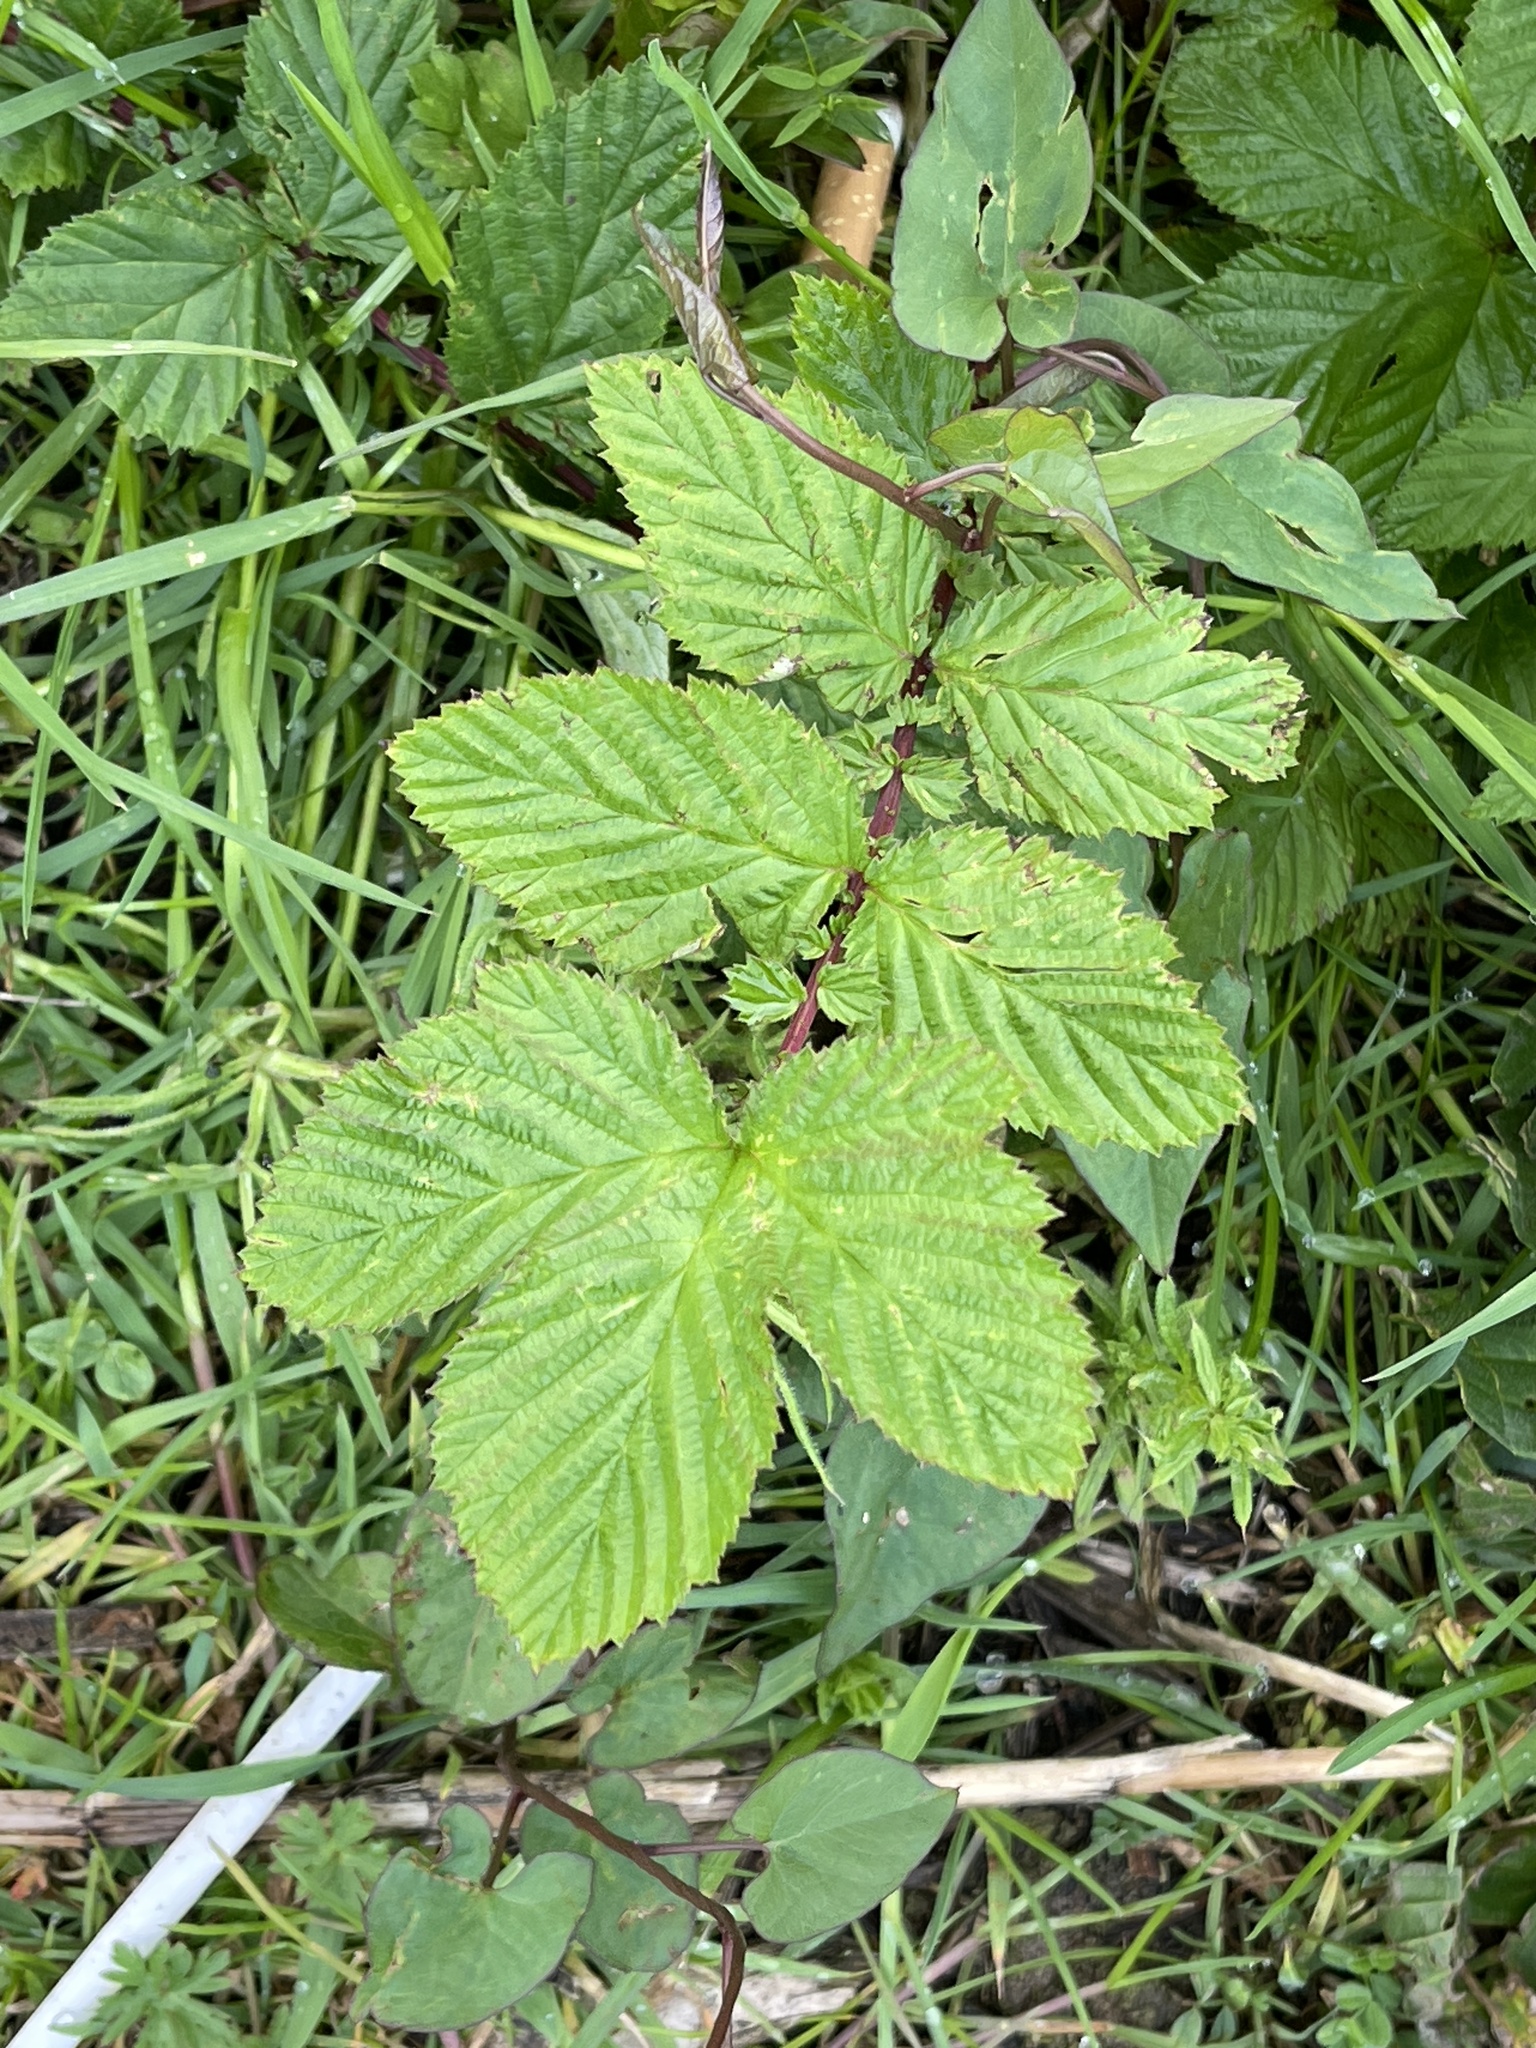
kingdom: Plantae
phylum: Tracheophyta
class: Magnoliopsida
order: Rosales
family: Rosaceae
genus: Filipendula
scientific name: Filipendula ulmaria
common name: Meadowsweet
